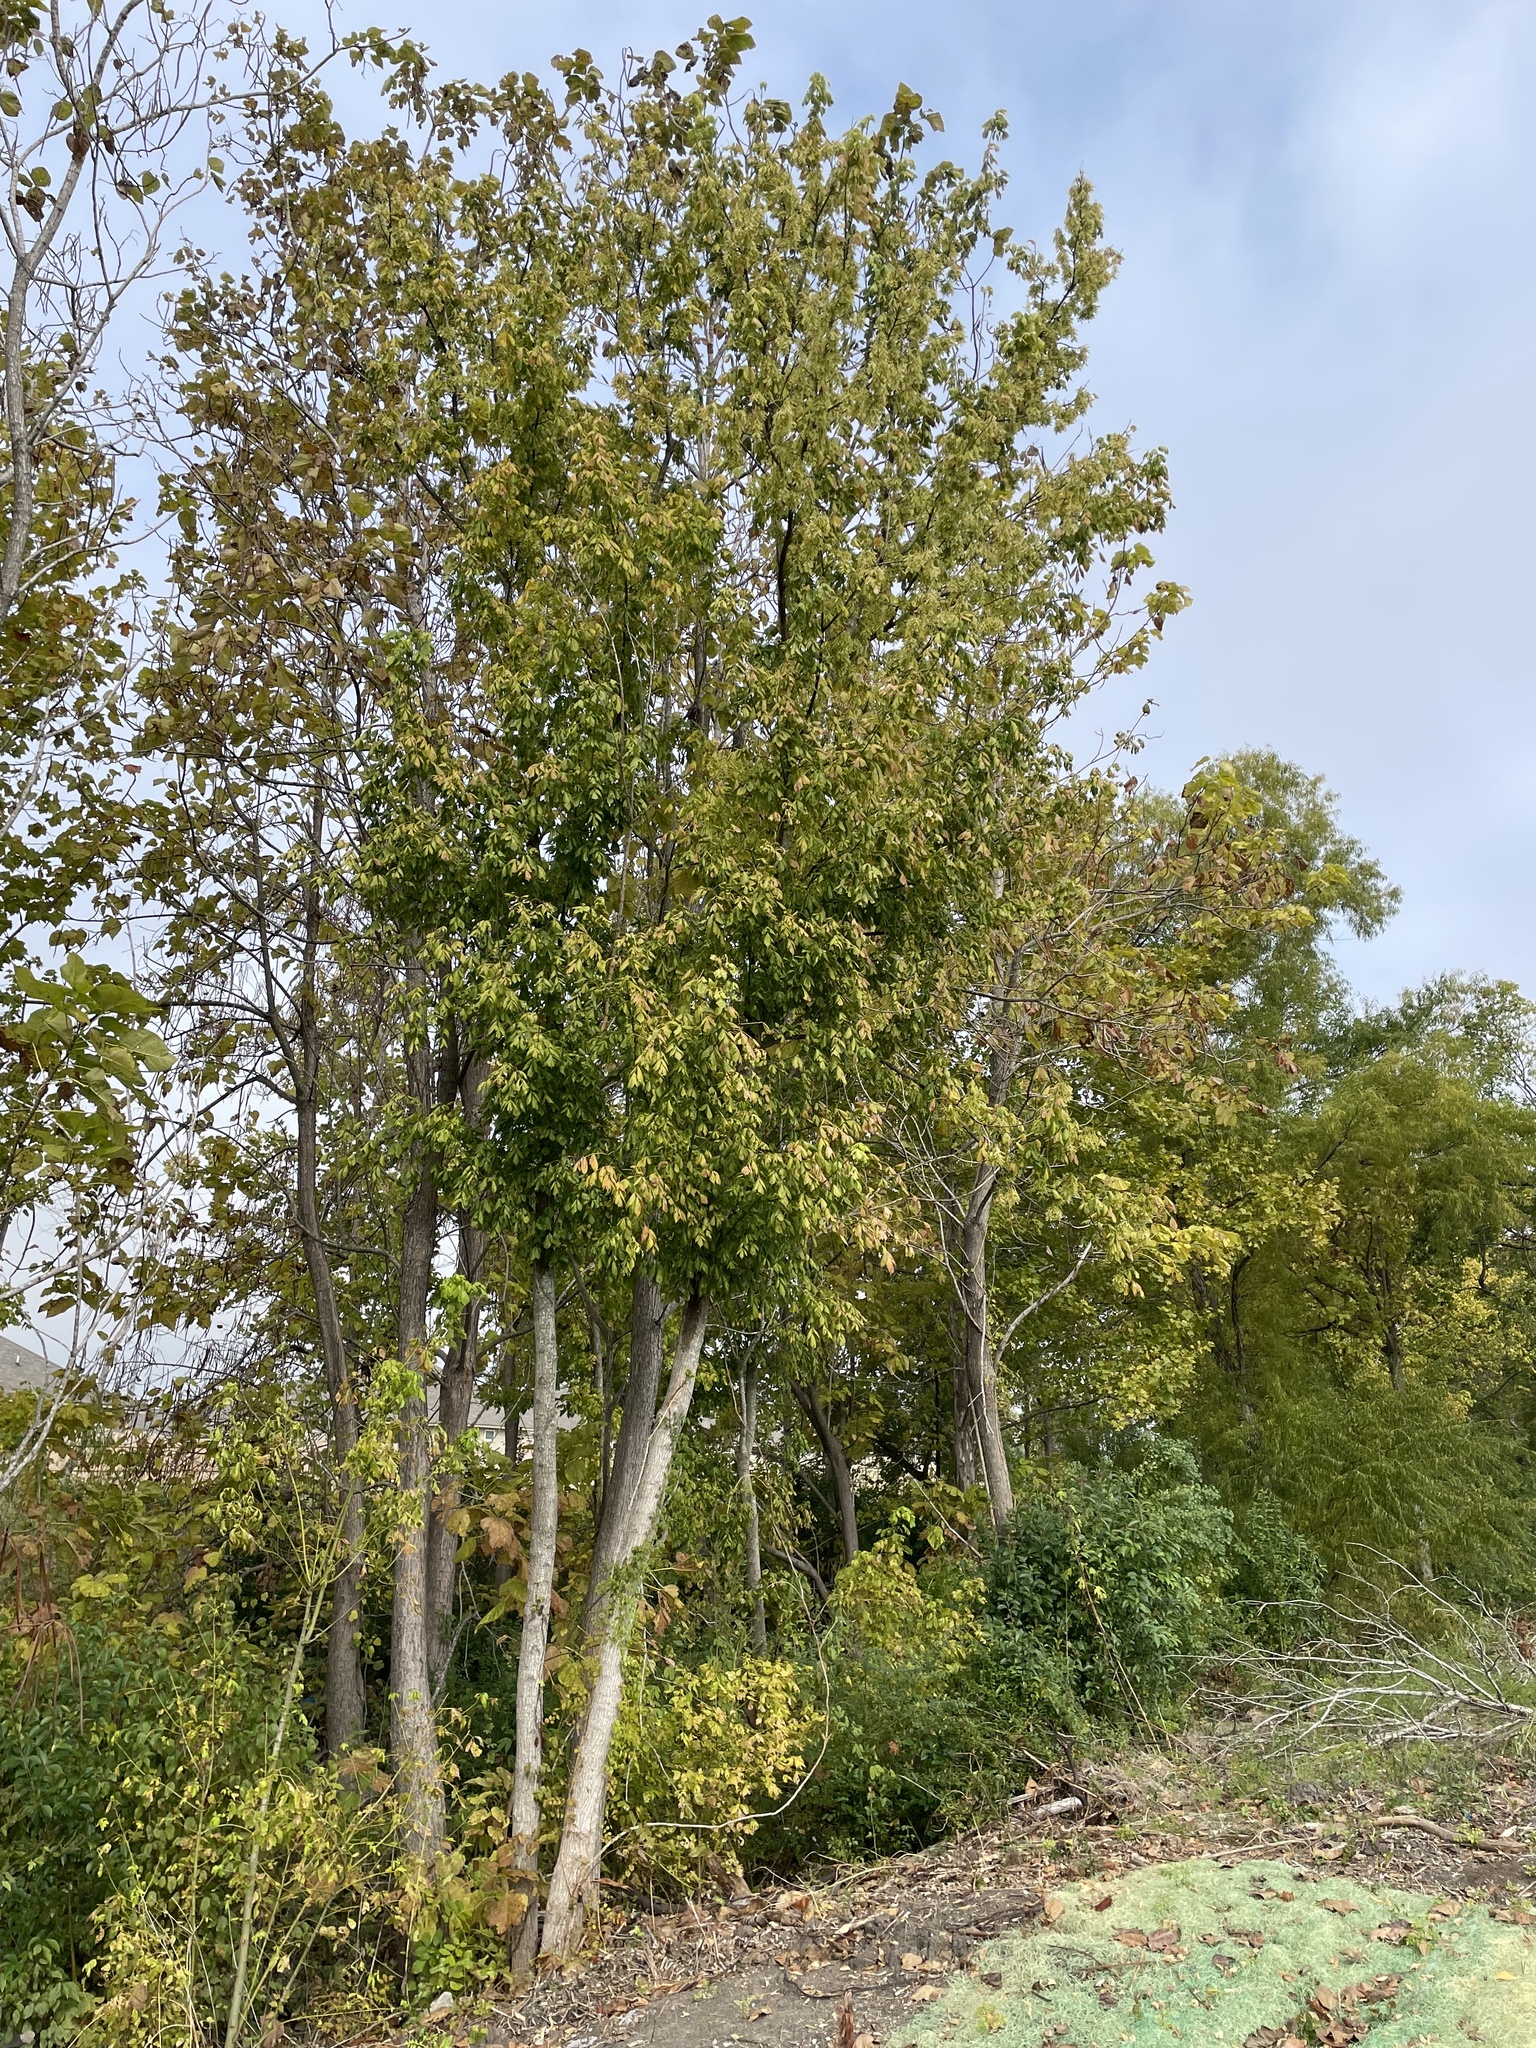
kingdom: Plantae
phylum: Tracheophyta
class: Magnoliopsida
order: Sapindales
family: Sapindaceae
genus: Acer
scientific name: Acer negundo
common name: Ashleaf maple
